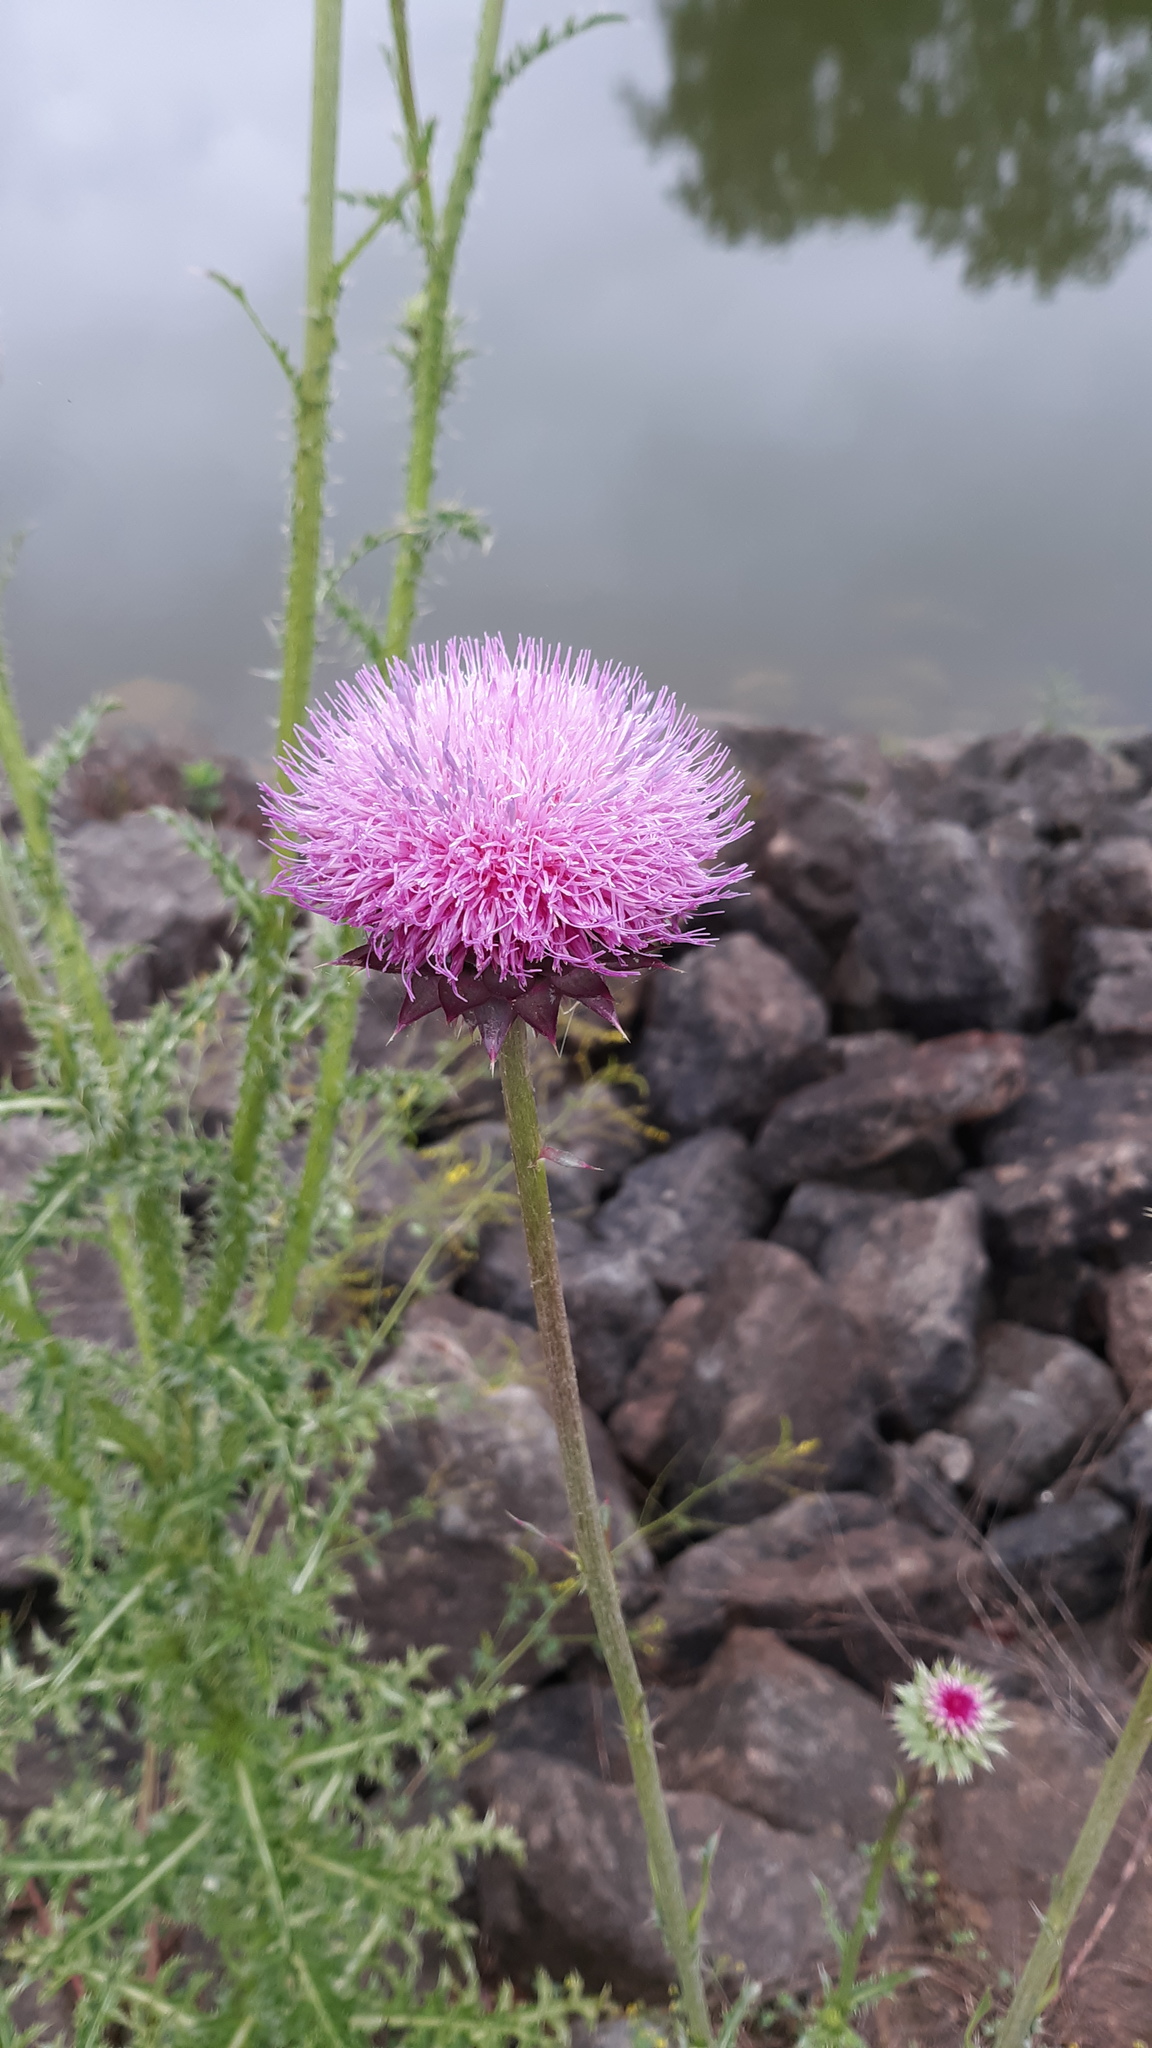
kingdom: Plantae
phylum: Tracheophyta
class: Magnoliopsida
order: Asterales
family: Asteraceae
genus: Carduus
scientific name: Carduus nutans
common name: Musk thistle
